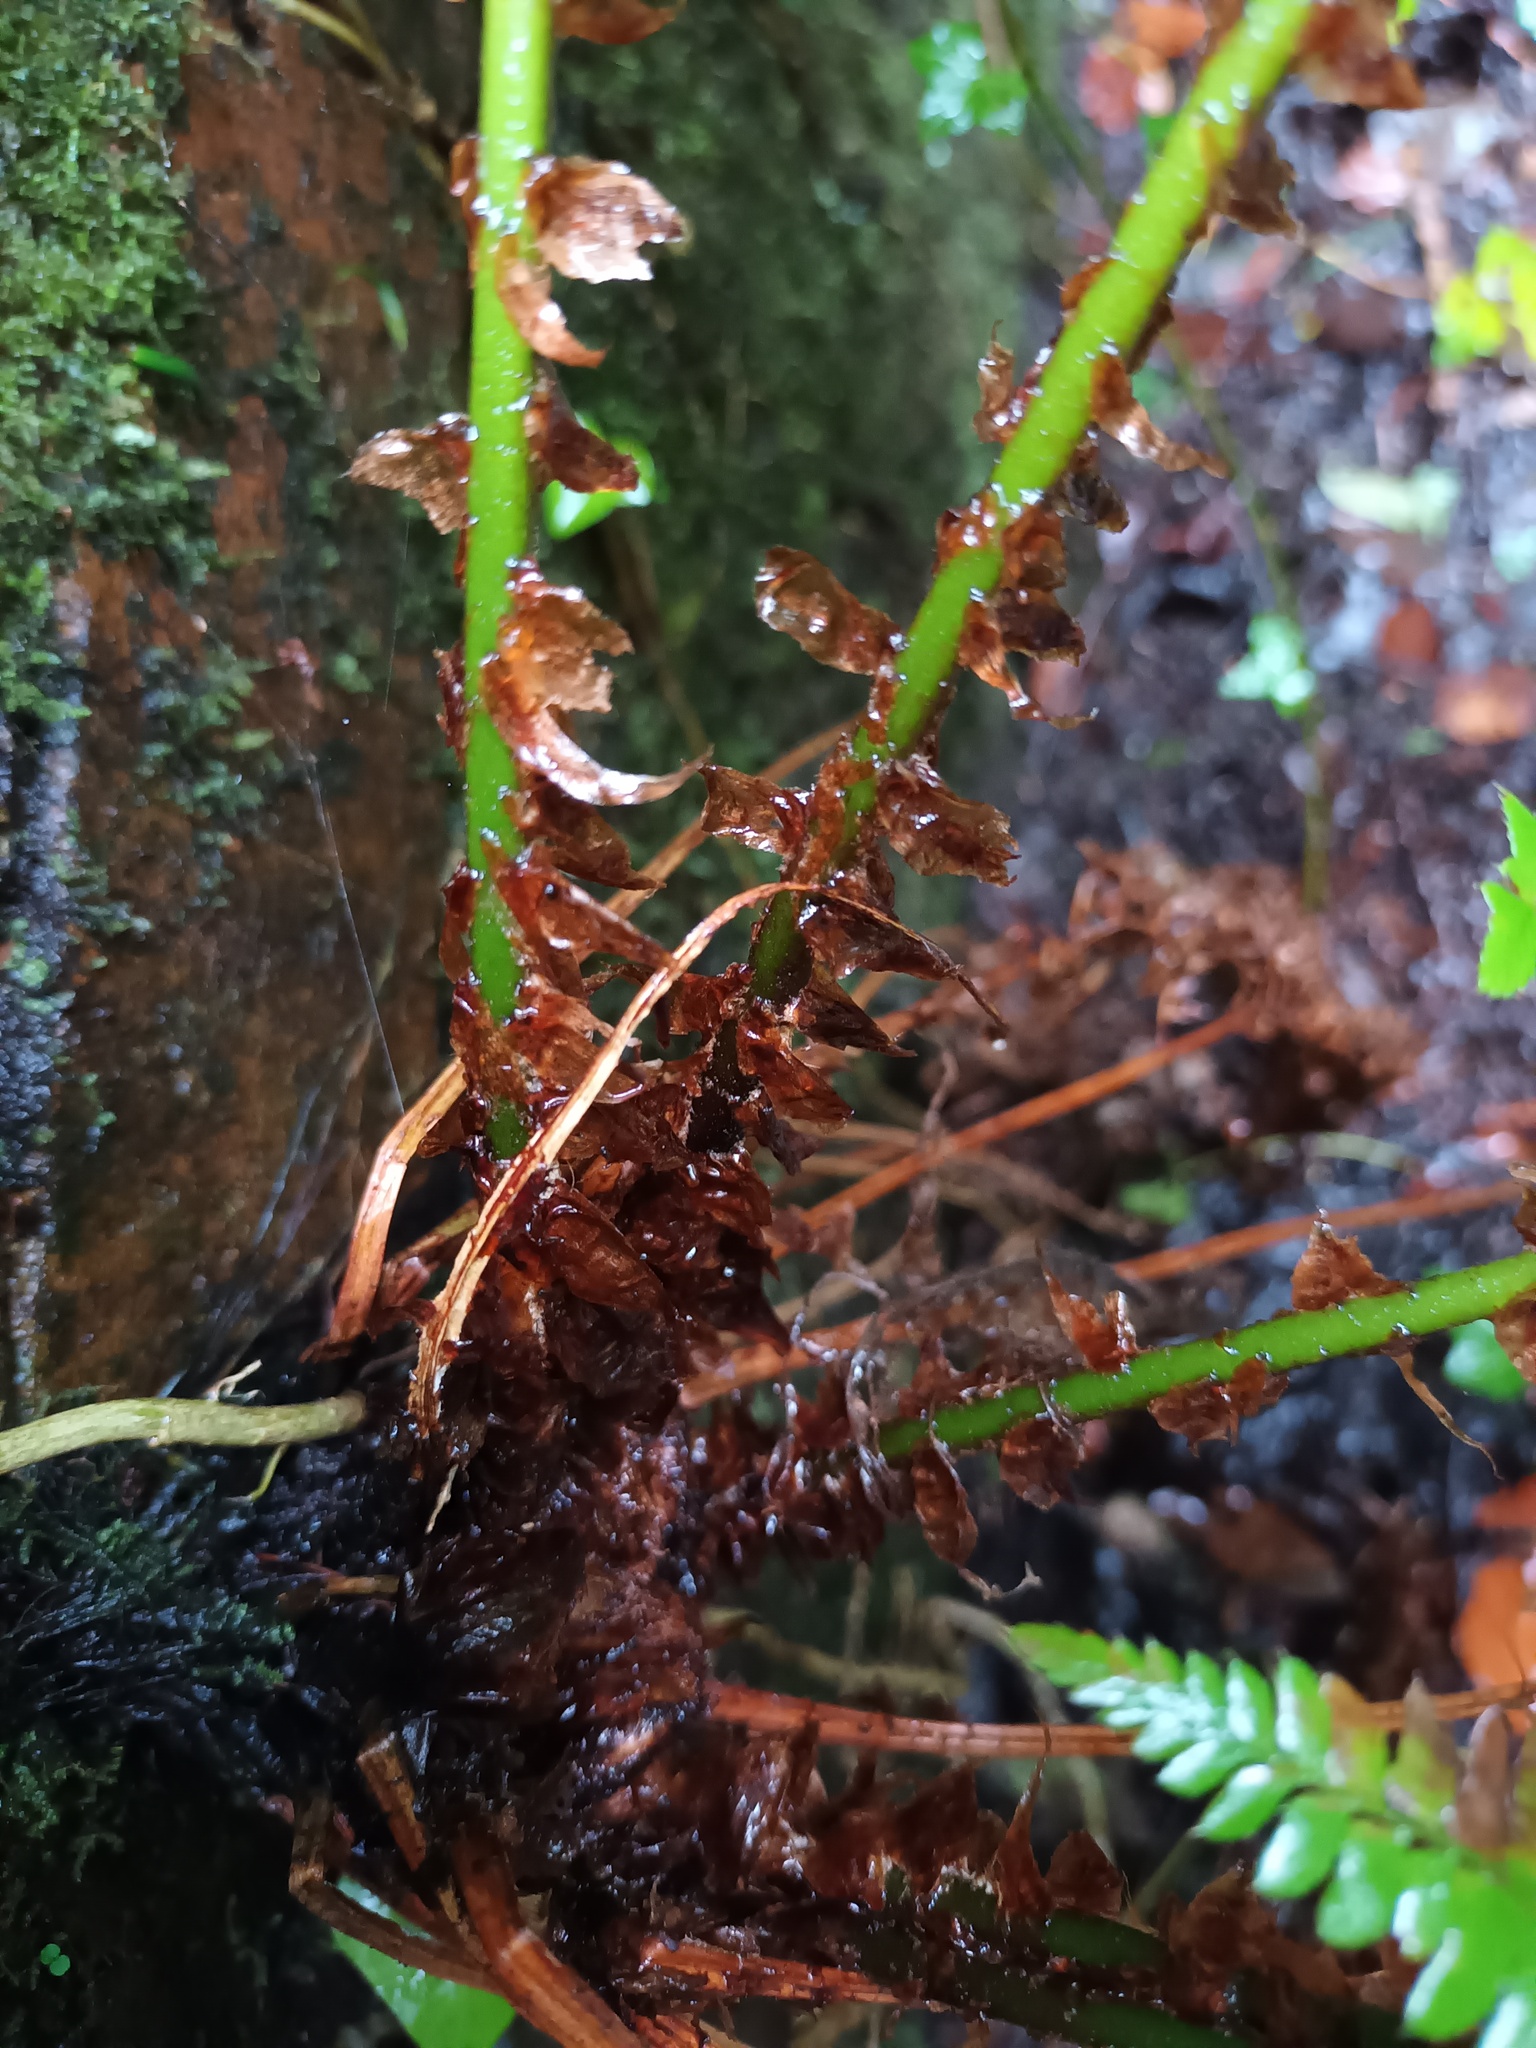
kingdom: Plantae
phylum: Tracheophyta
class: Polypodiopsida
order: Polypodiales
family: Dryopteridaceae
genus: Polystichum
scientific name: Polystichum setiferum
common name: Soft shield-fern
